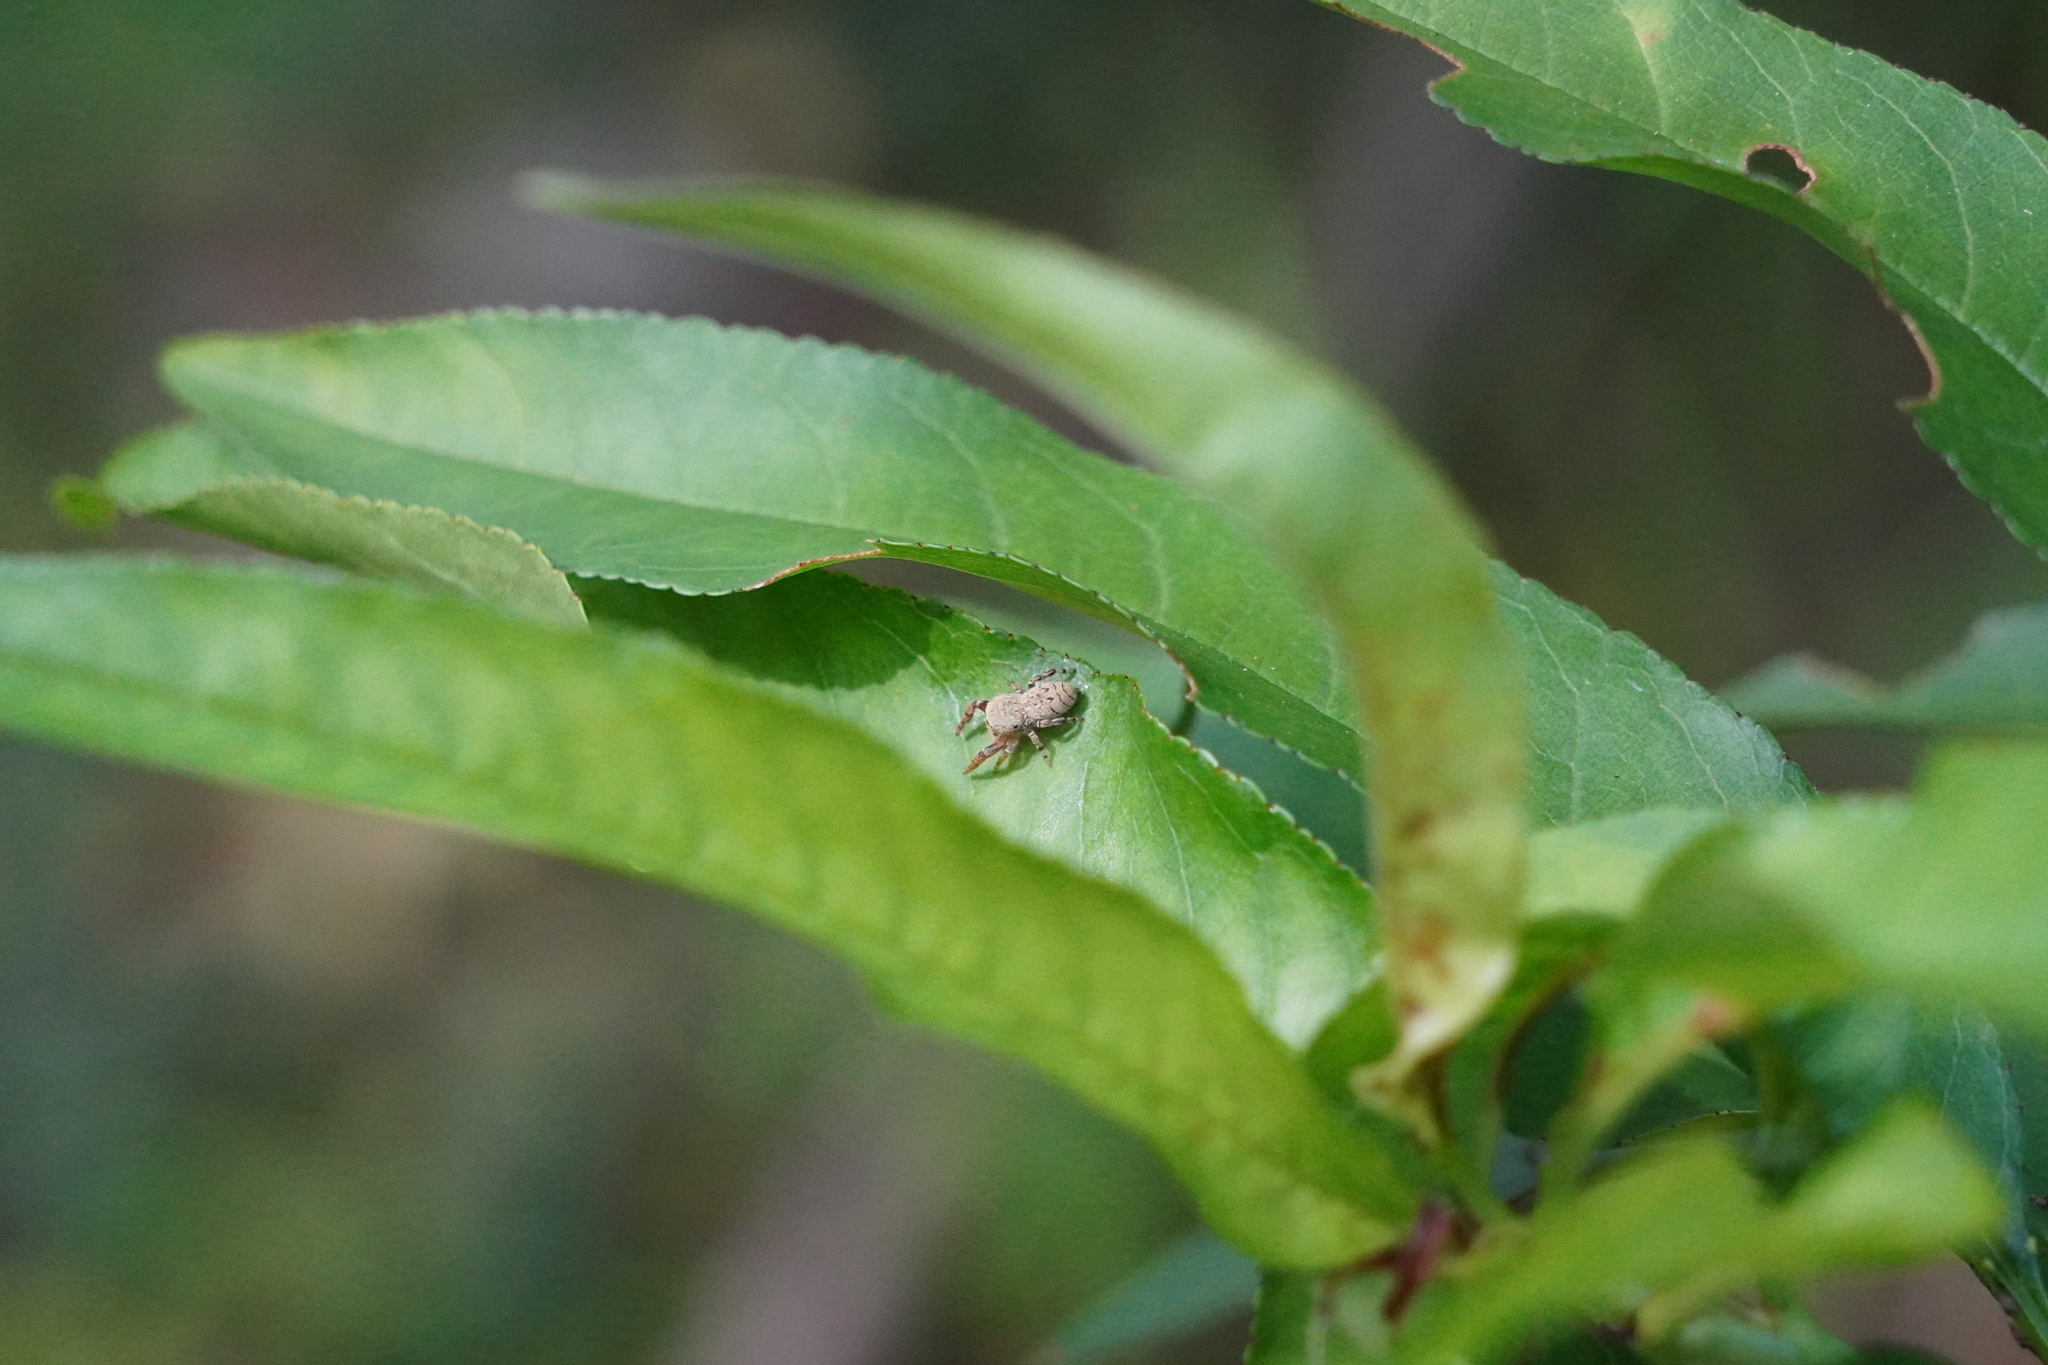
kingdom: Animalia
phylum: Arthropoda
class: Arachnida
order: Araneae
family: Salticidae
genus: Rhene
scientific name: Rhene flavicomans
